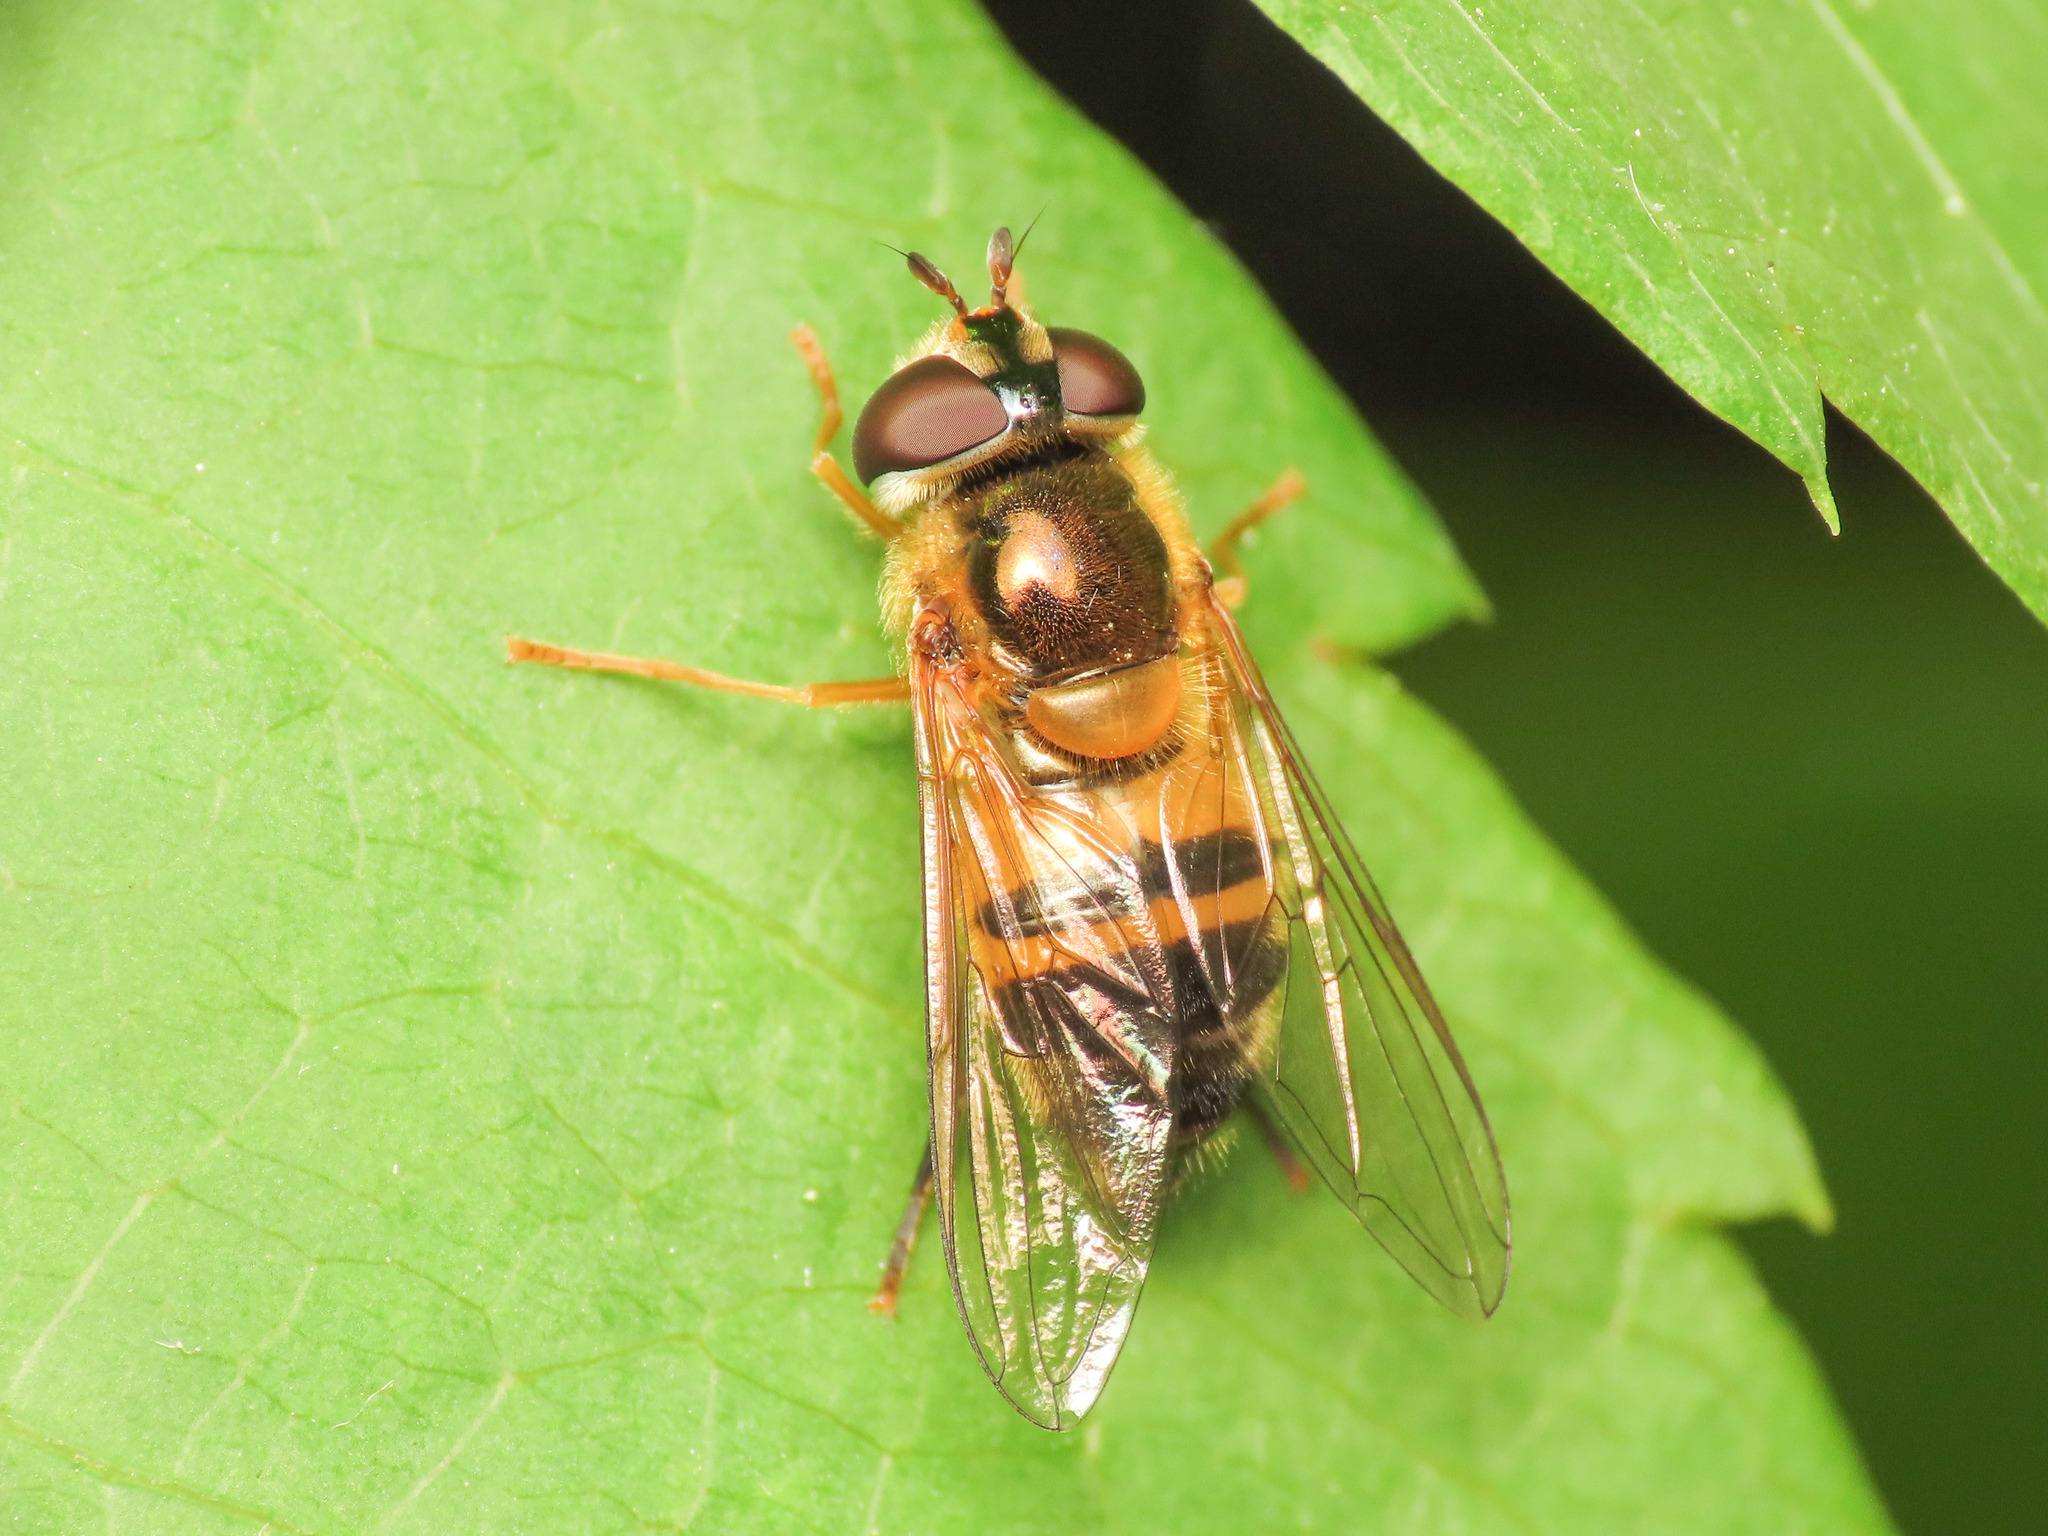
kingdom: Animalia
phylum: Arthropoda
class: Insecta
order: Diptera
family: Syrphidae
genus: Epistrophe
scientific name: Epistrophe eligans
